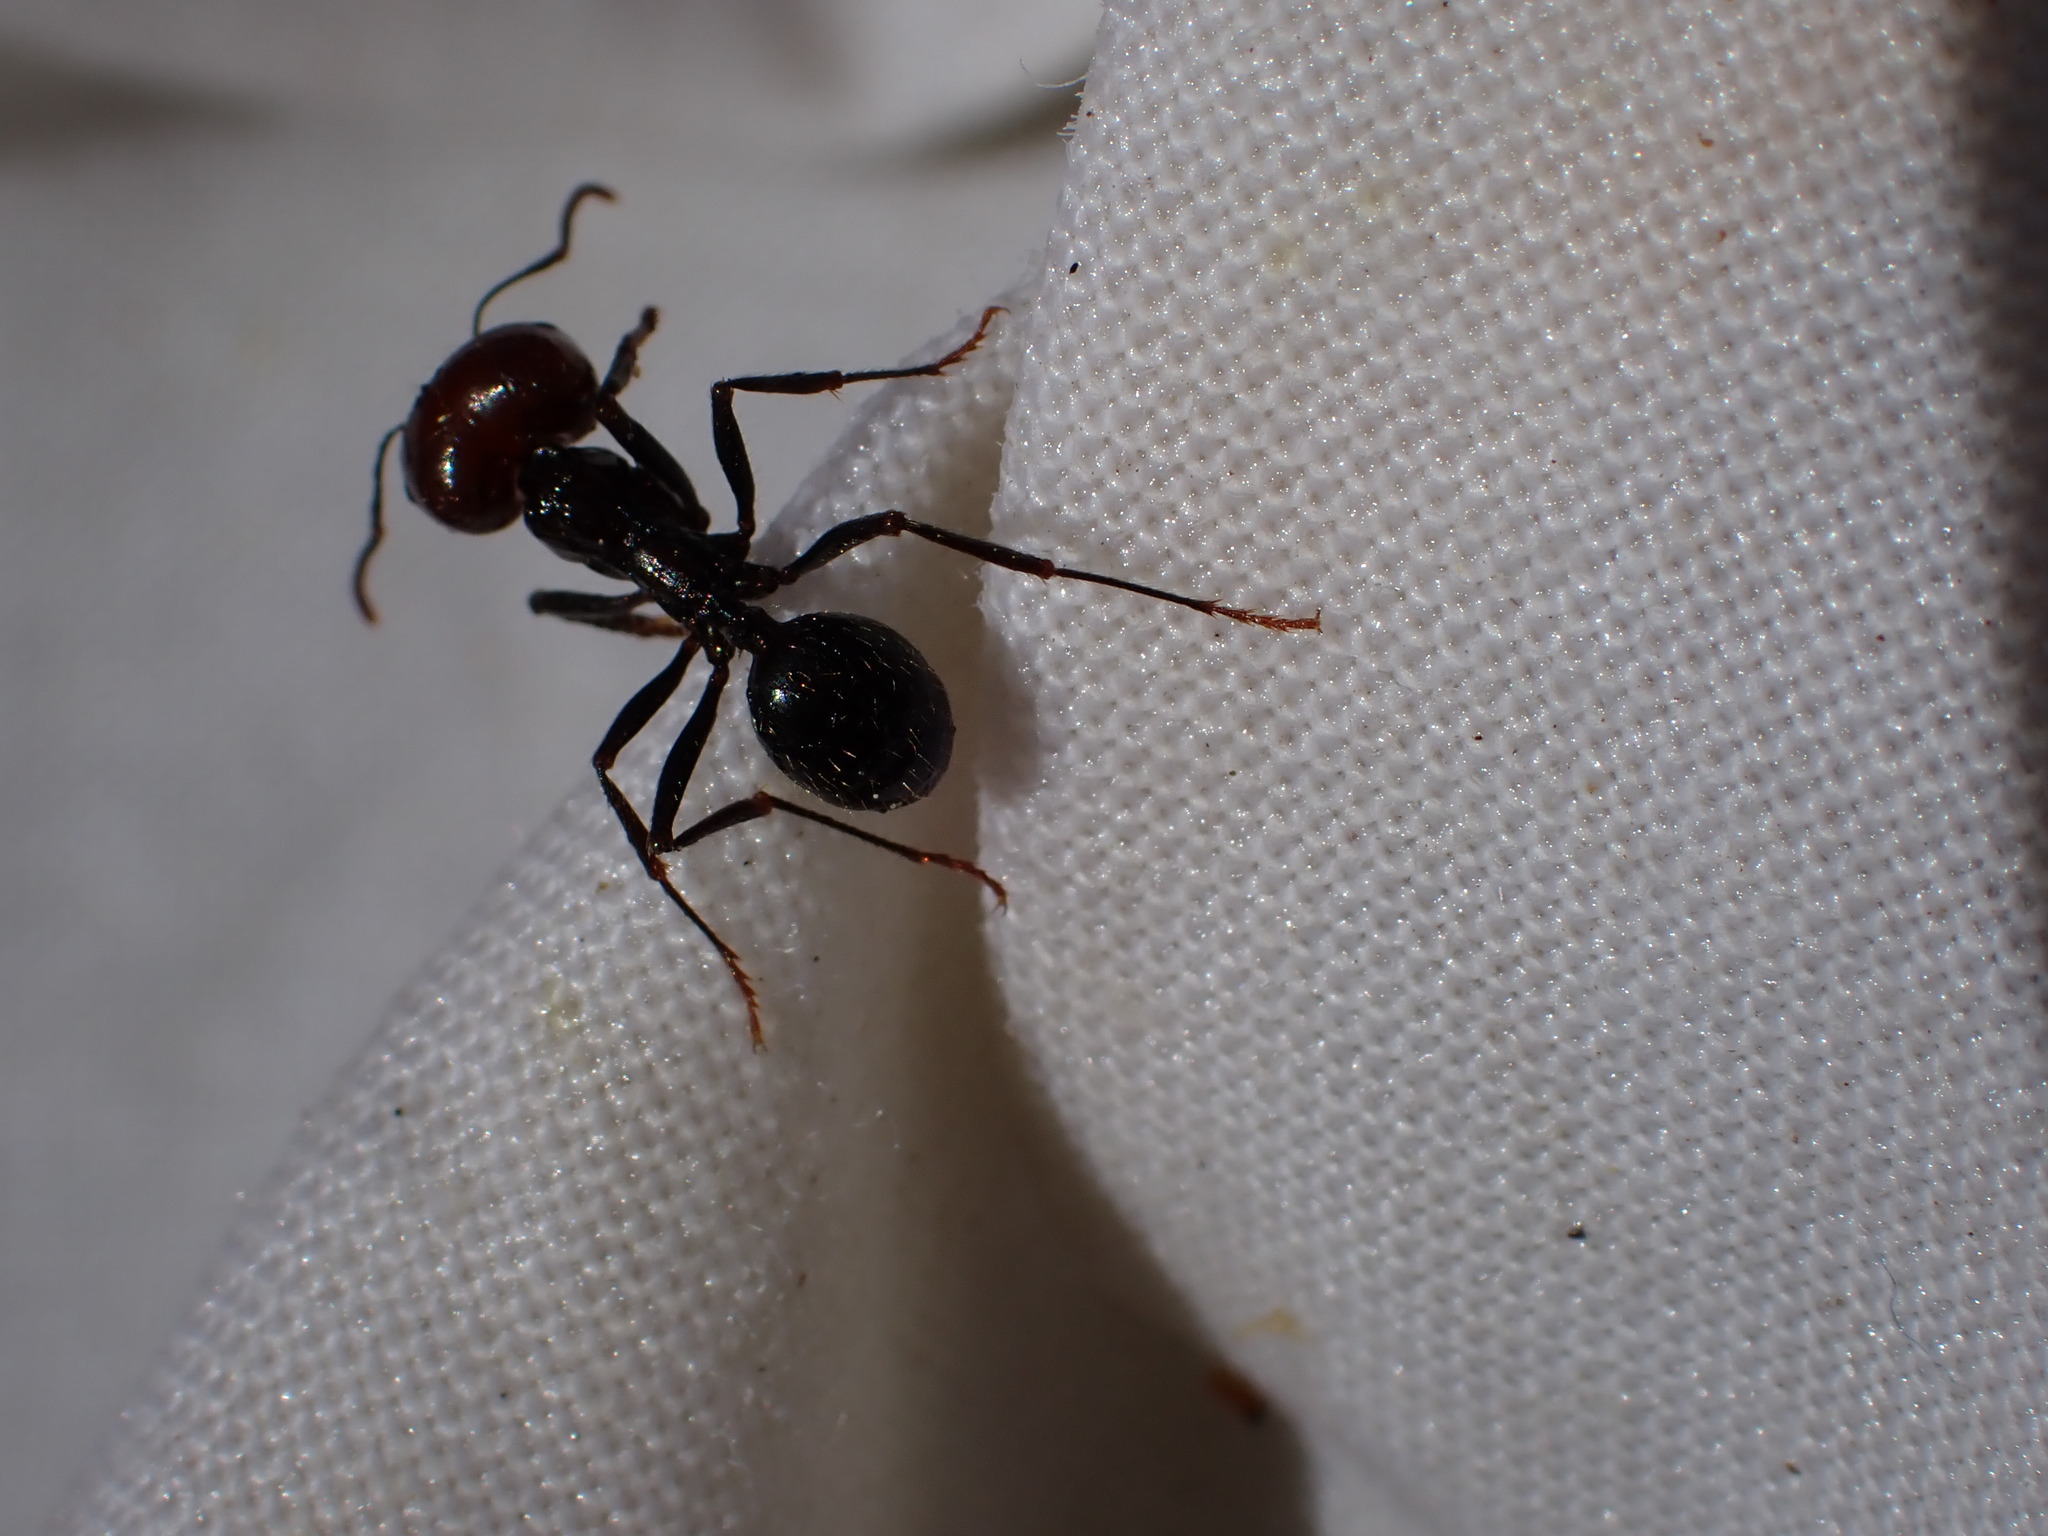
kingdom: Animalia
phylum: Arthropoda
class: Insecta
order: Hymenoptera
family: Formicidae
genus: Messor
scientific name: Messor barbarus
